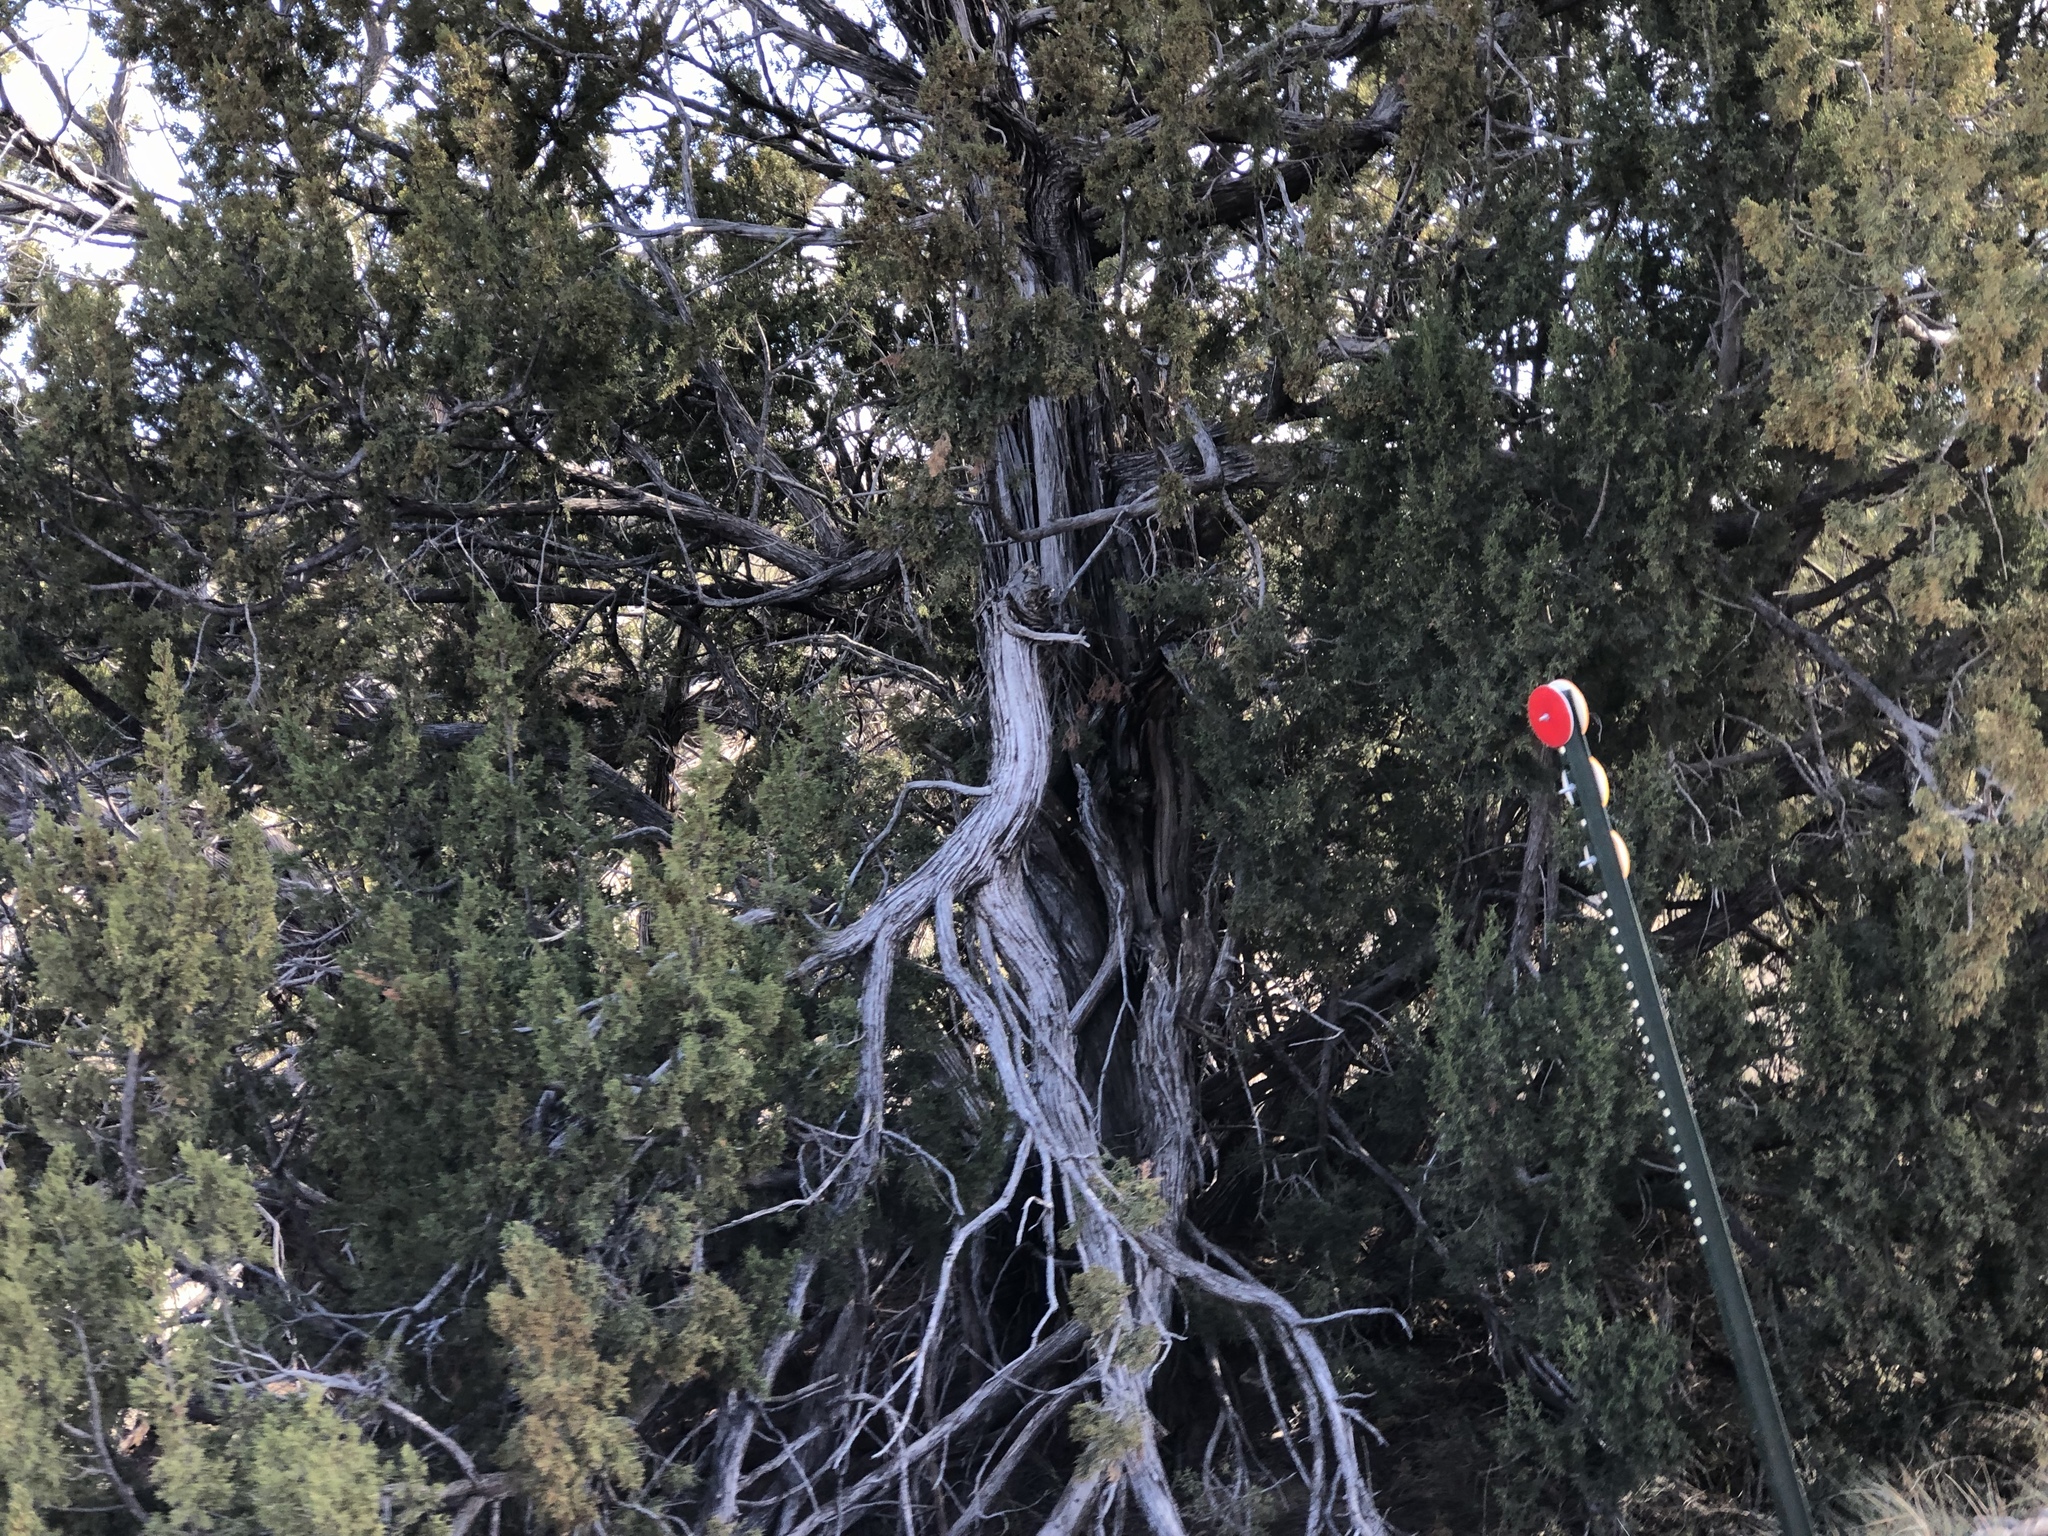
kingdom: Plantae
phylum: Tracheophyta
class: Pinopsida
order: Pinales
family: Cupressaceae
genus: Juniperus
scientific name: Juniperus monosperma
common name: One-seed juniper
